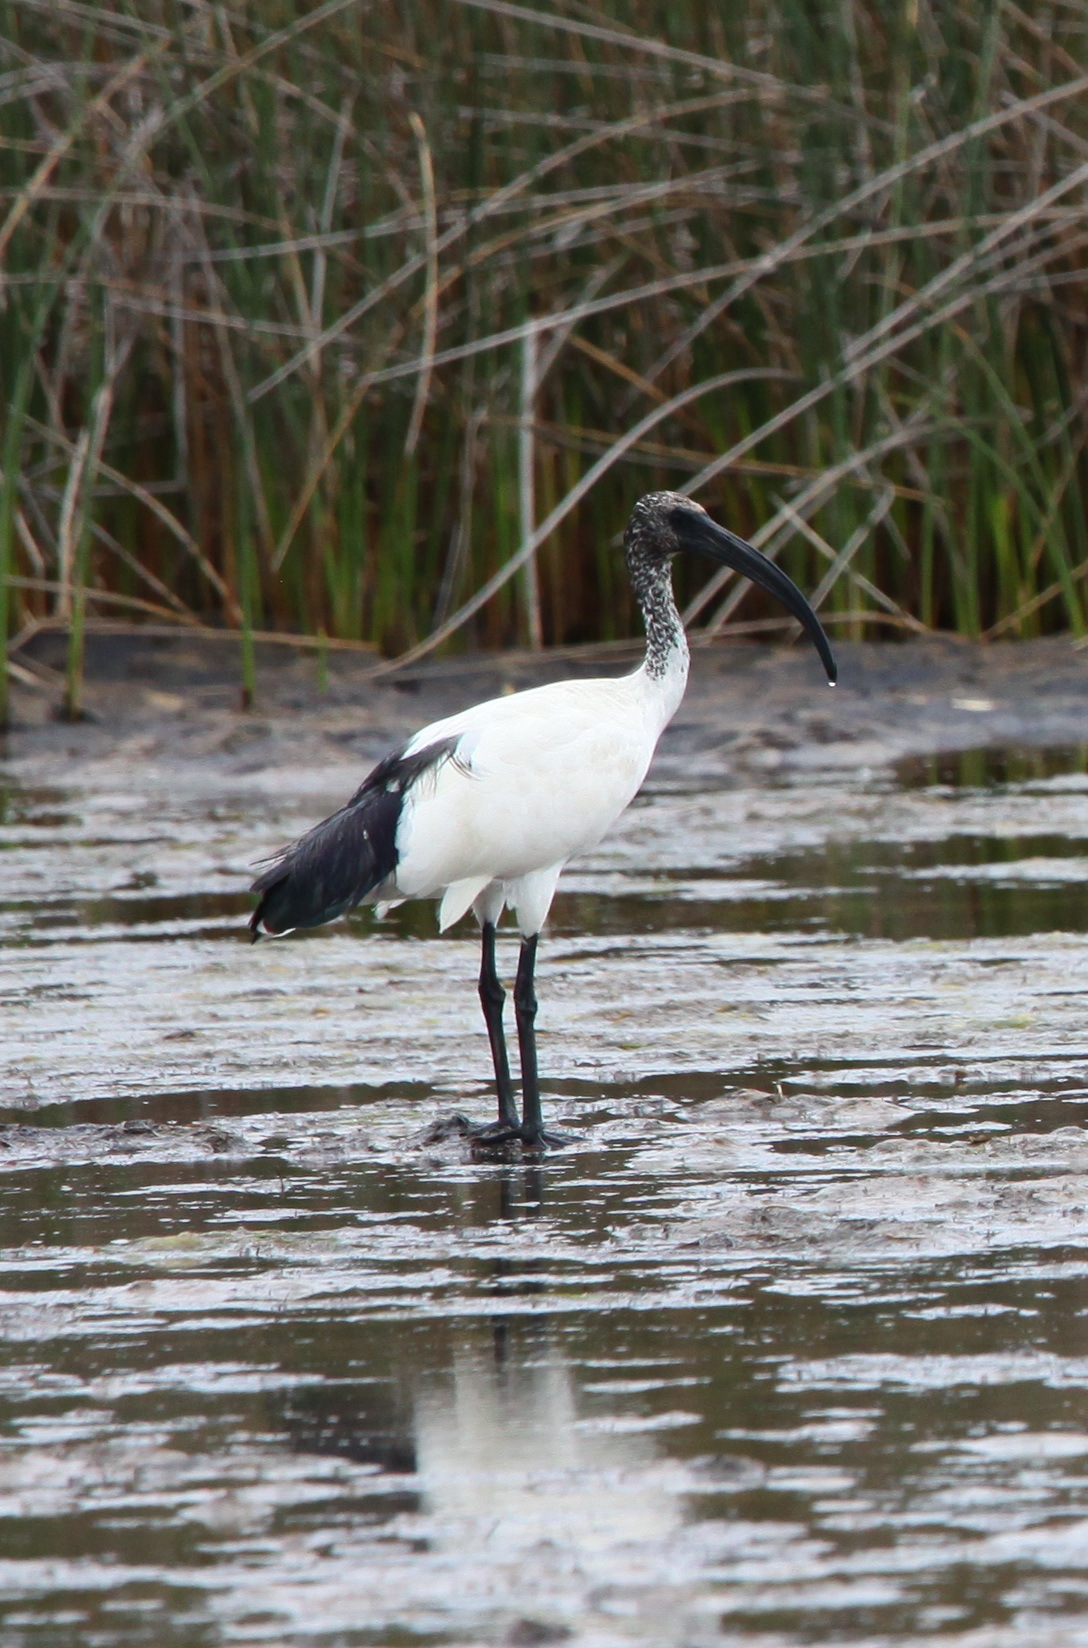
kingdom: Animalia
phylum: Chordata
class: Aves
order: Pelecaniformes
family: Threskiornithidae
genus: Threskiornis
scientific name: Threskiornis aethiopicus
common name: Sacred ibis
